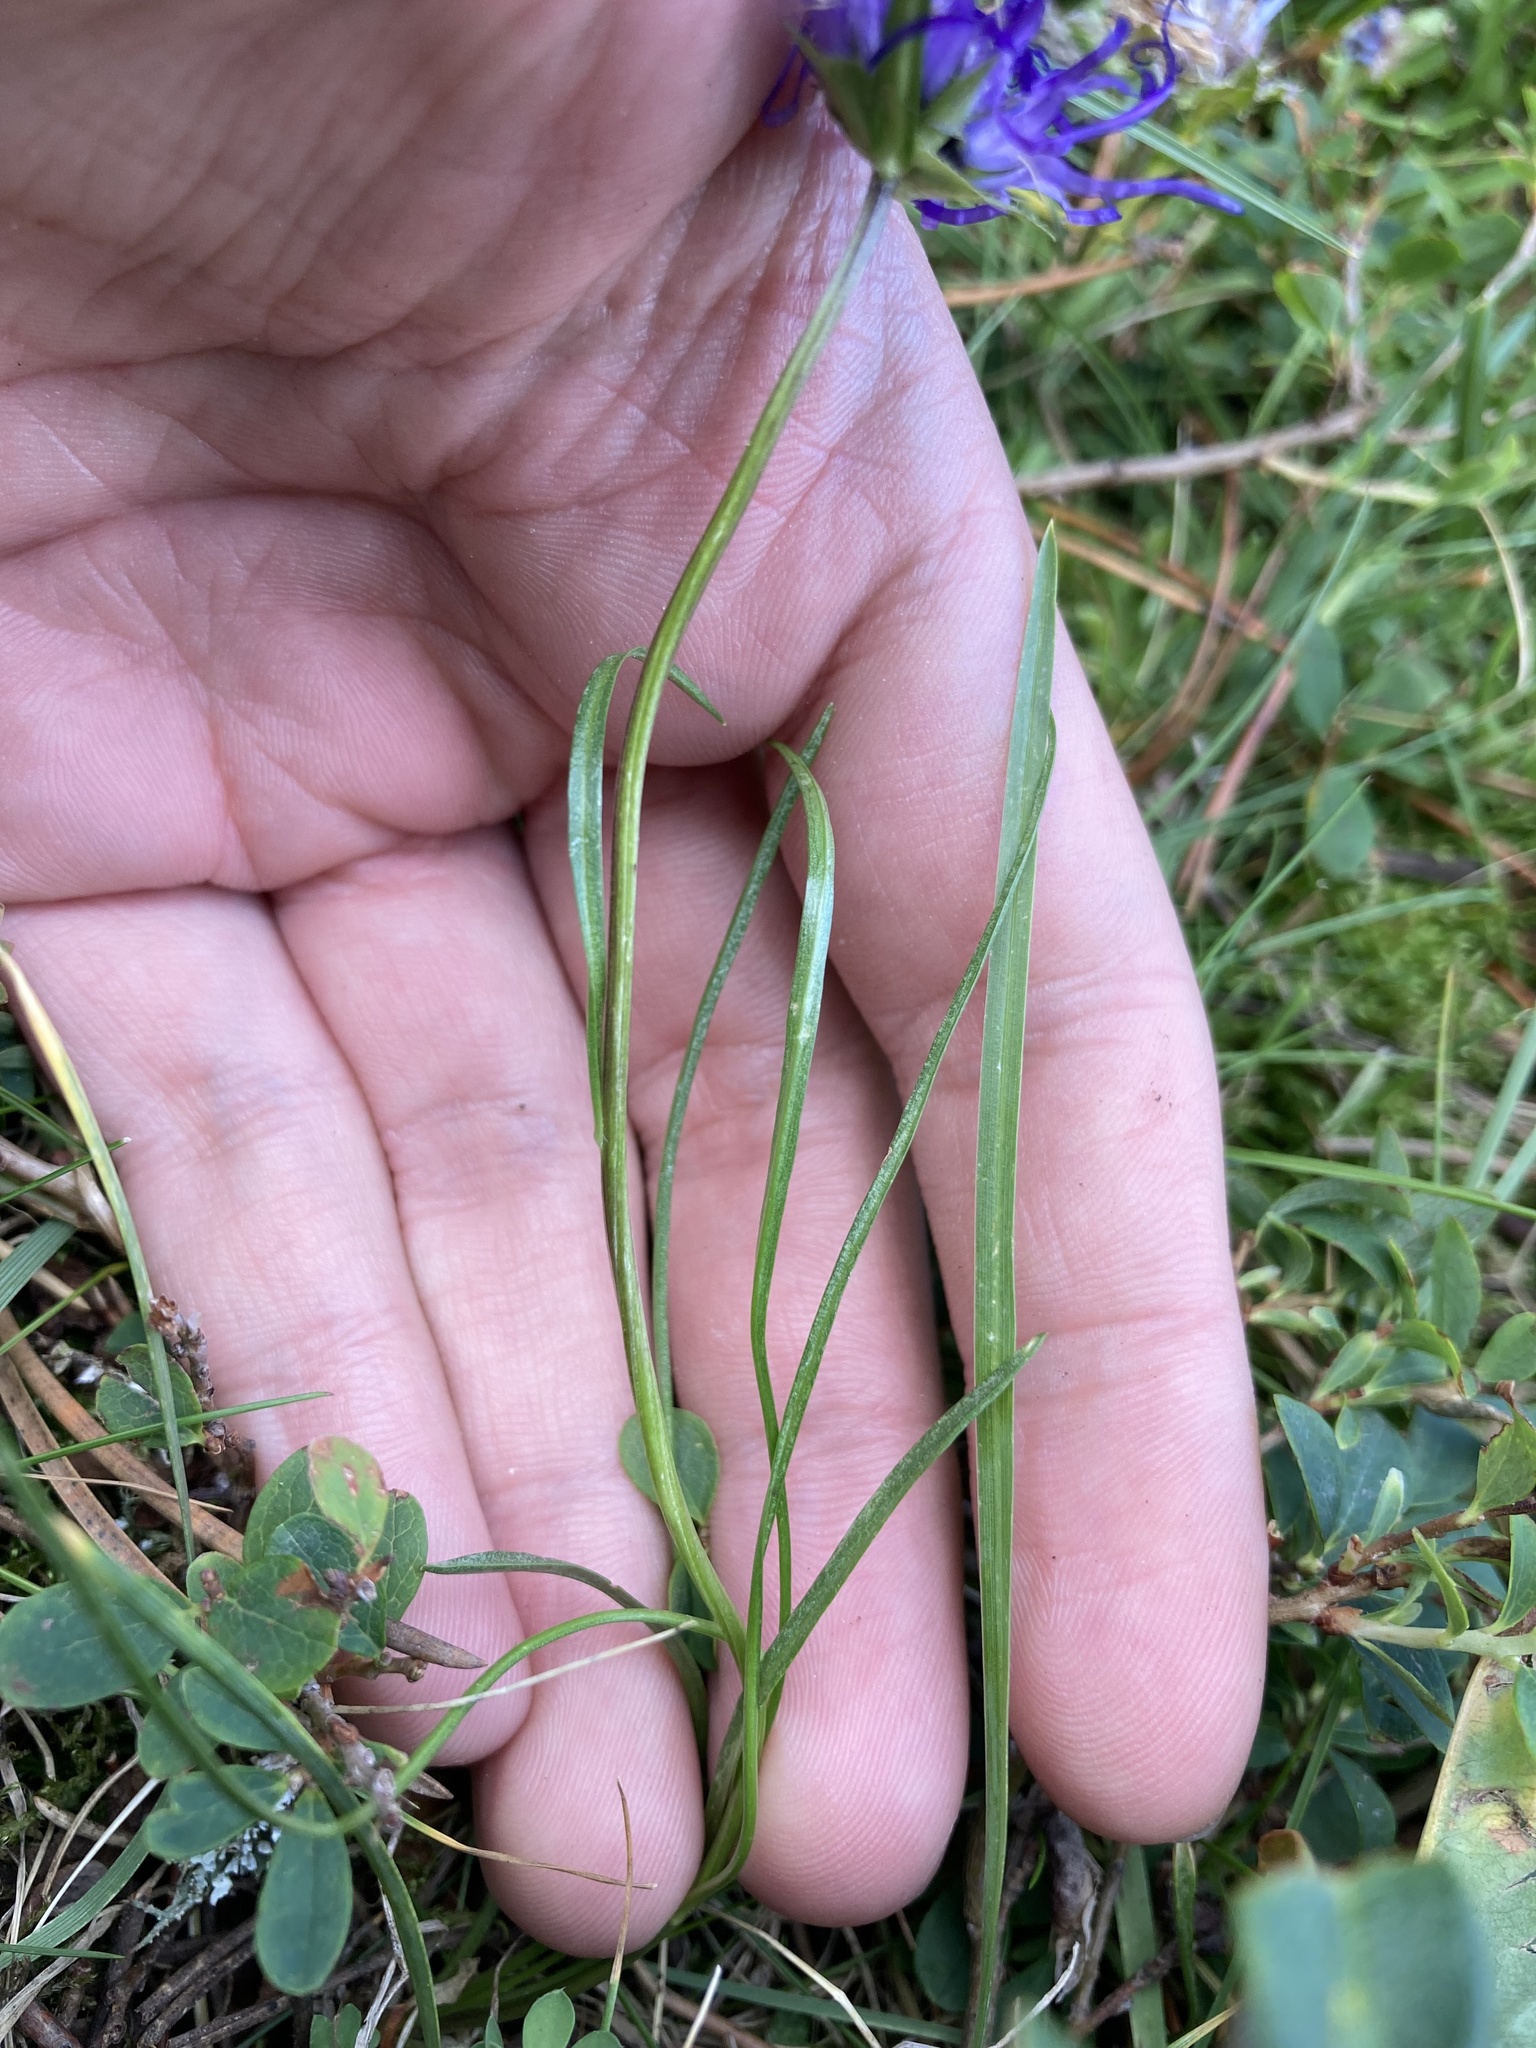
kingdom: Plantae
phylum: Tracheophyta
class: Magnoliopsida
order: Asterales
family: Campanulaceae
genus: Phyteuma
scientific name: Phyteuma hemisphaericum
